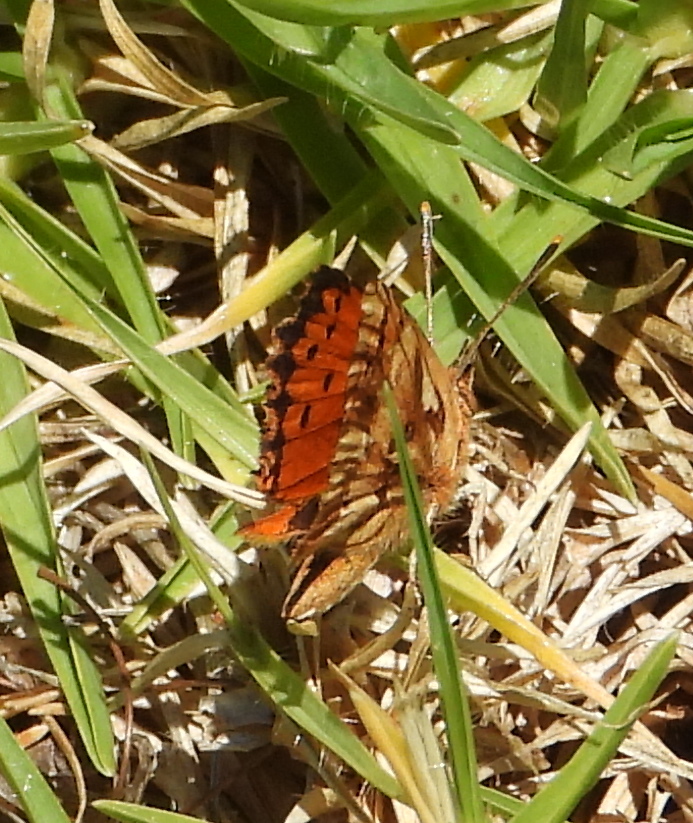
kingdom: Animalia
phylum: Arthropoda
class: Insecta
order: Lepidoptera
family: Lycaenidae
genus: Chrysoritis
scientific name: Chrysoritis
